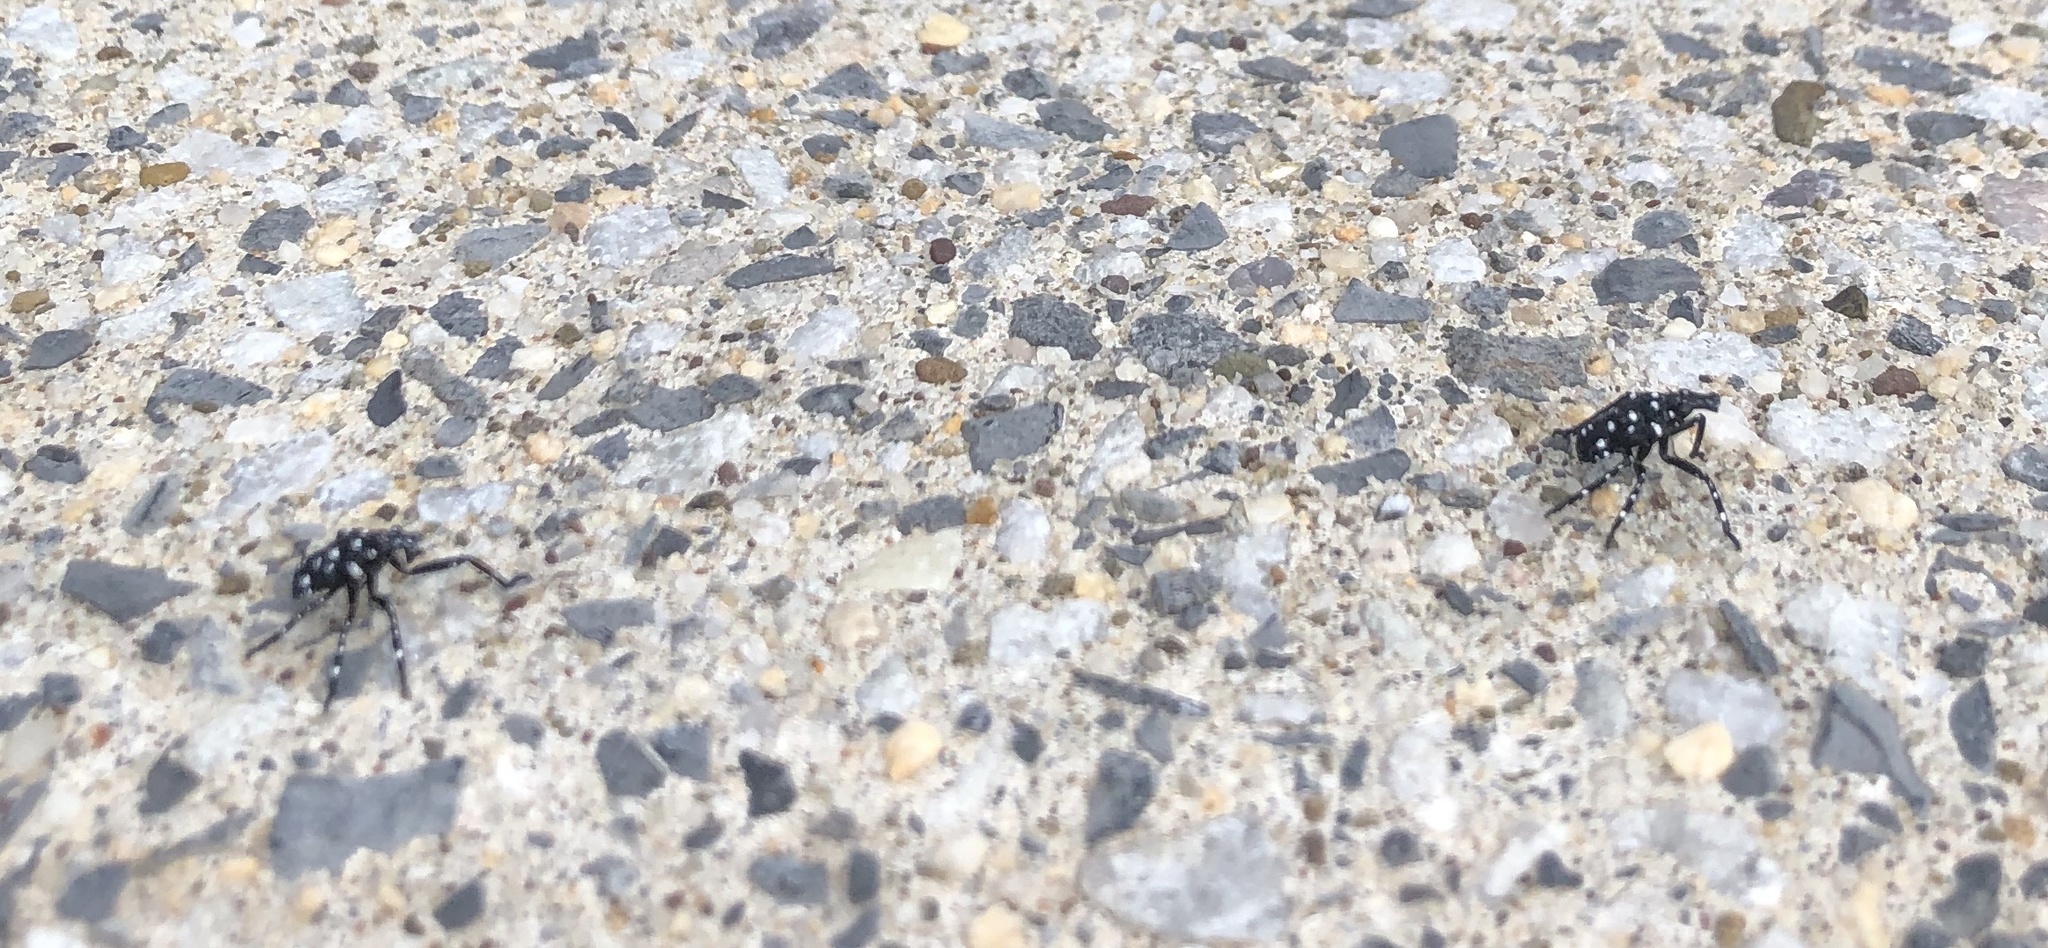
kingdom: Animalia
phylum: Arthropoda
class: Insecta
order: Hemiptera
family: Fulgoridae
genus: Lycorma
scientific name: Lycorma delicatula
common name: Spotted lanternfly
